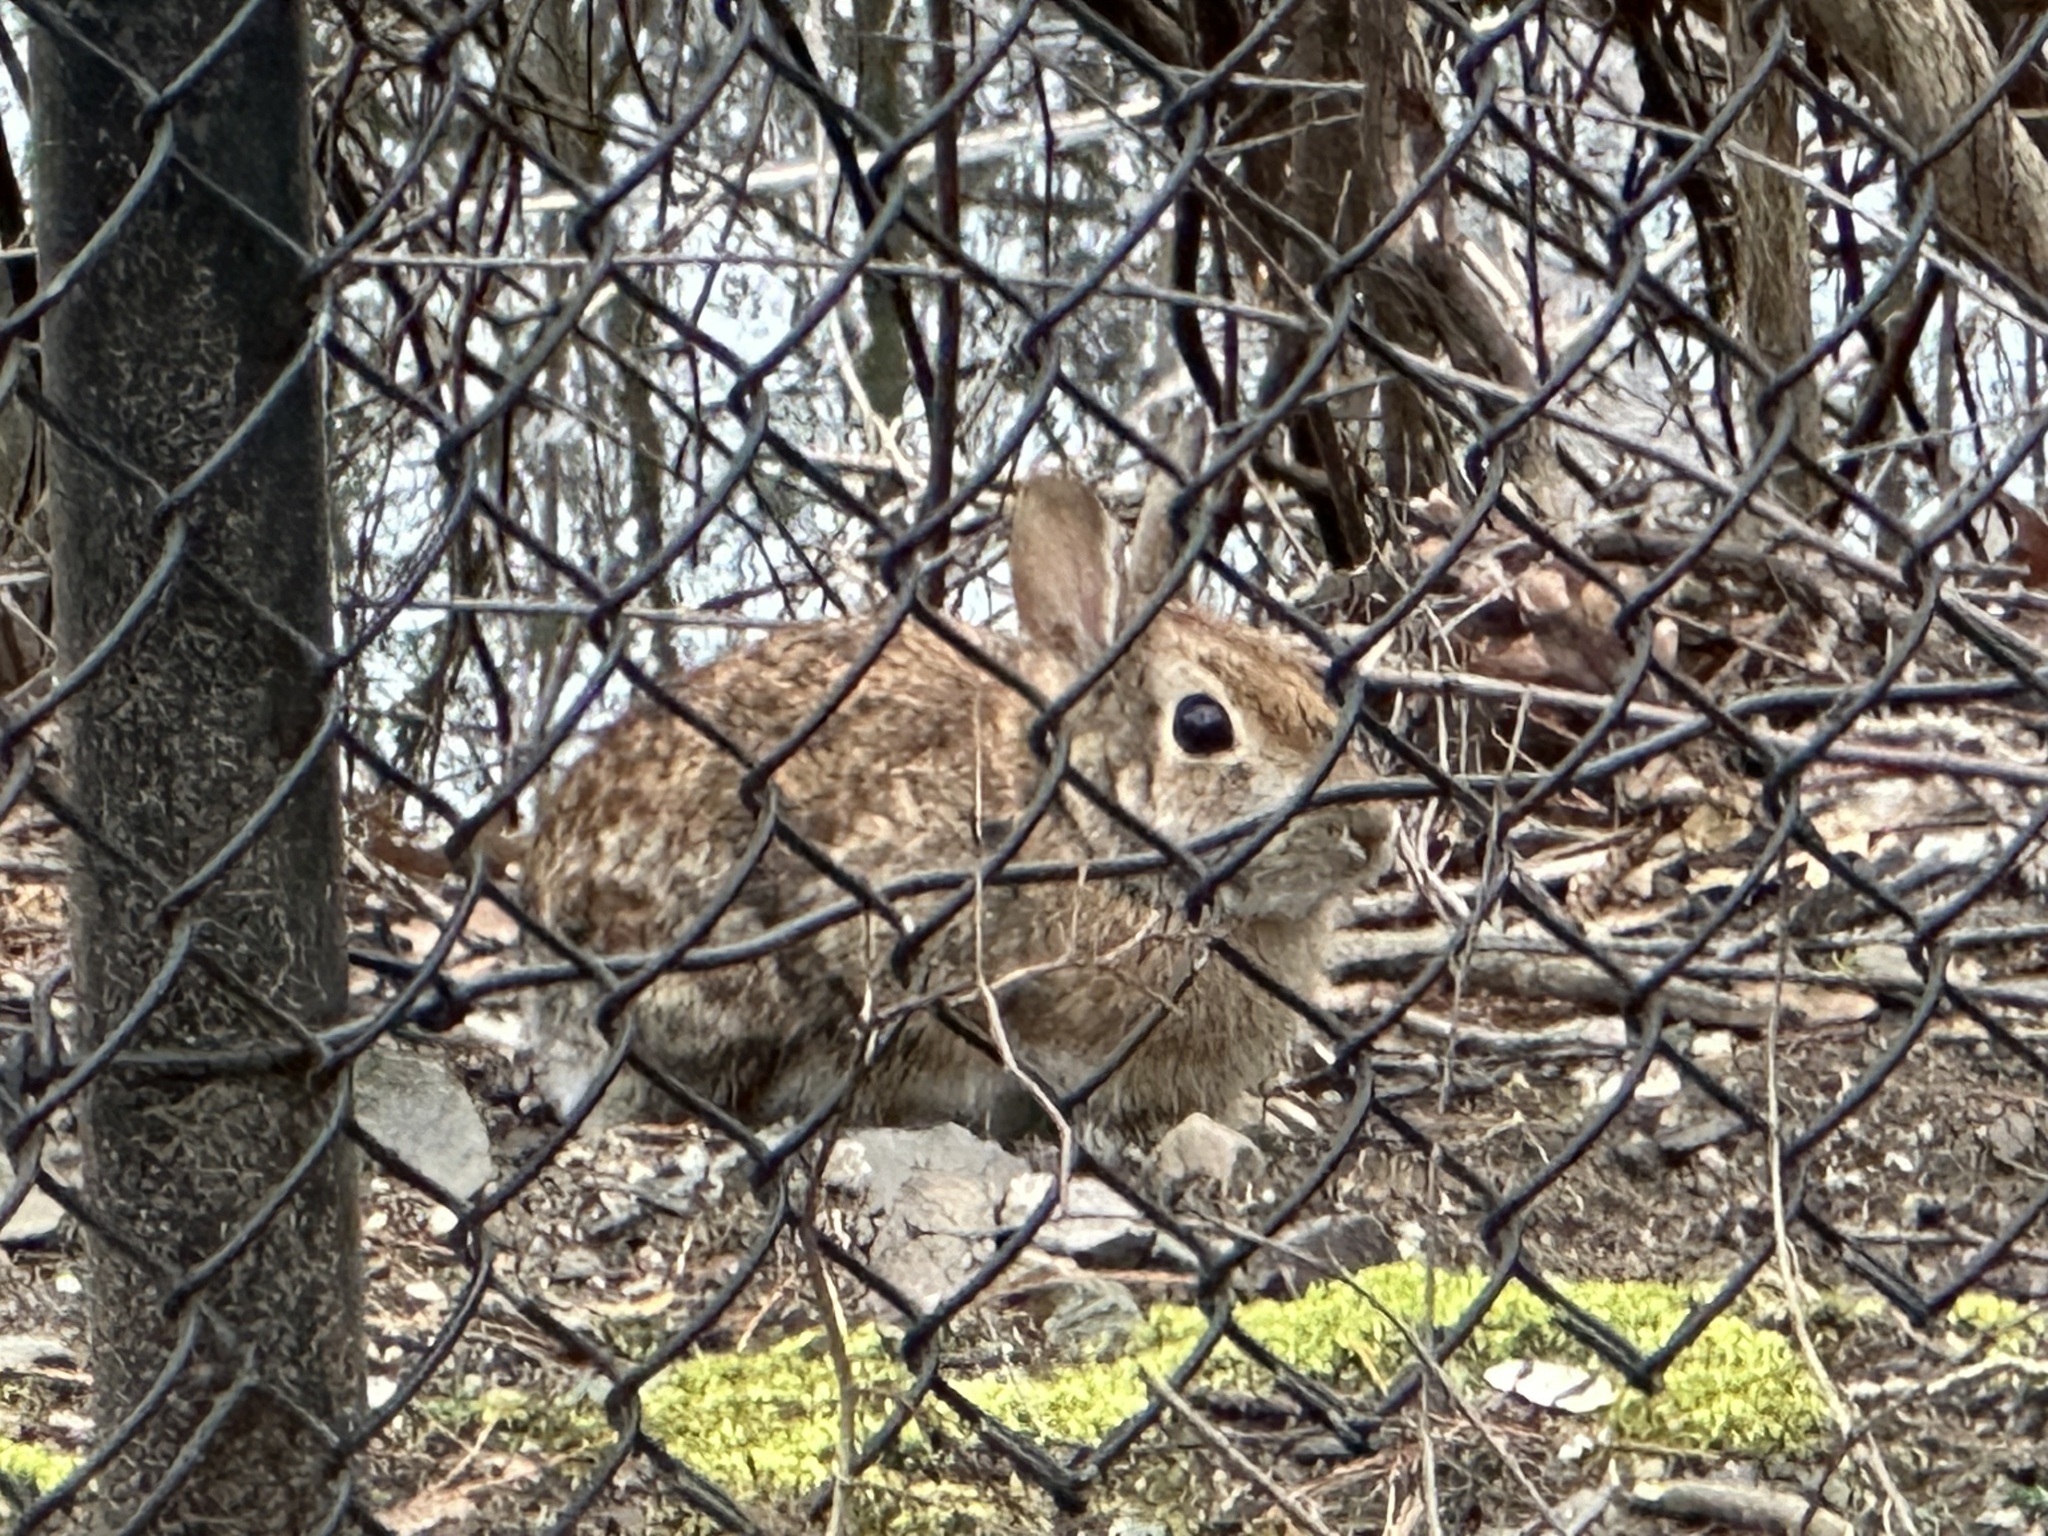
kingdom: Animalia
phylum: Chordata
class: Mammalia
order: Lagomorpha
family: Leporidae
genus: Sylvilagus
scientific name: Sylvilagus floridanus
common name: Eastern cottontail
